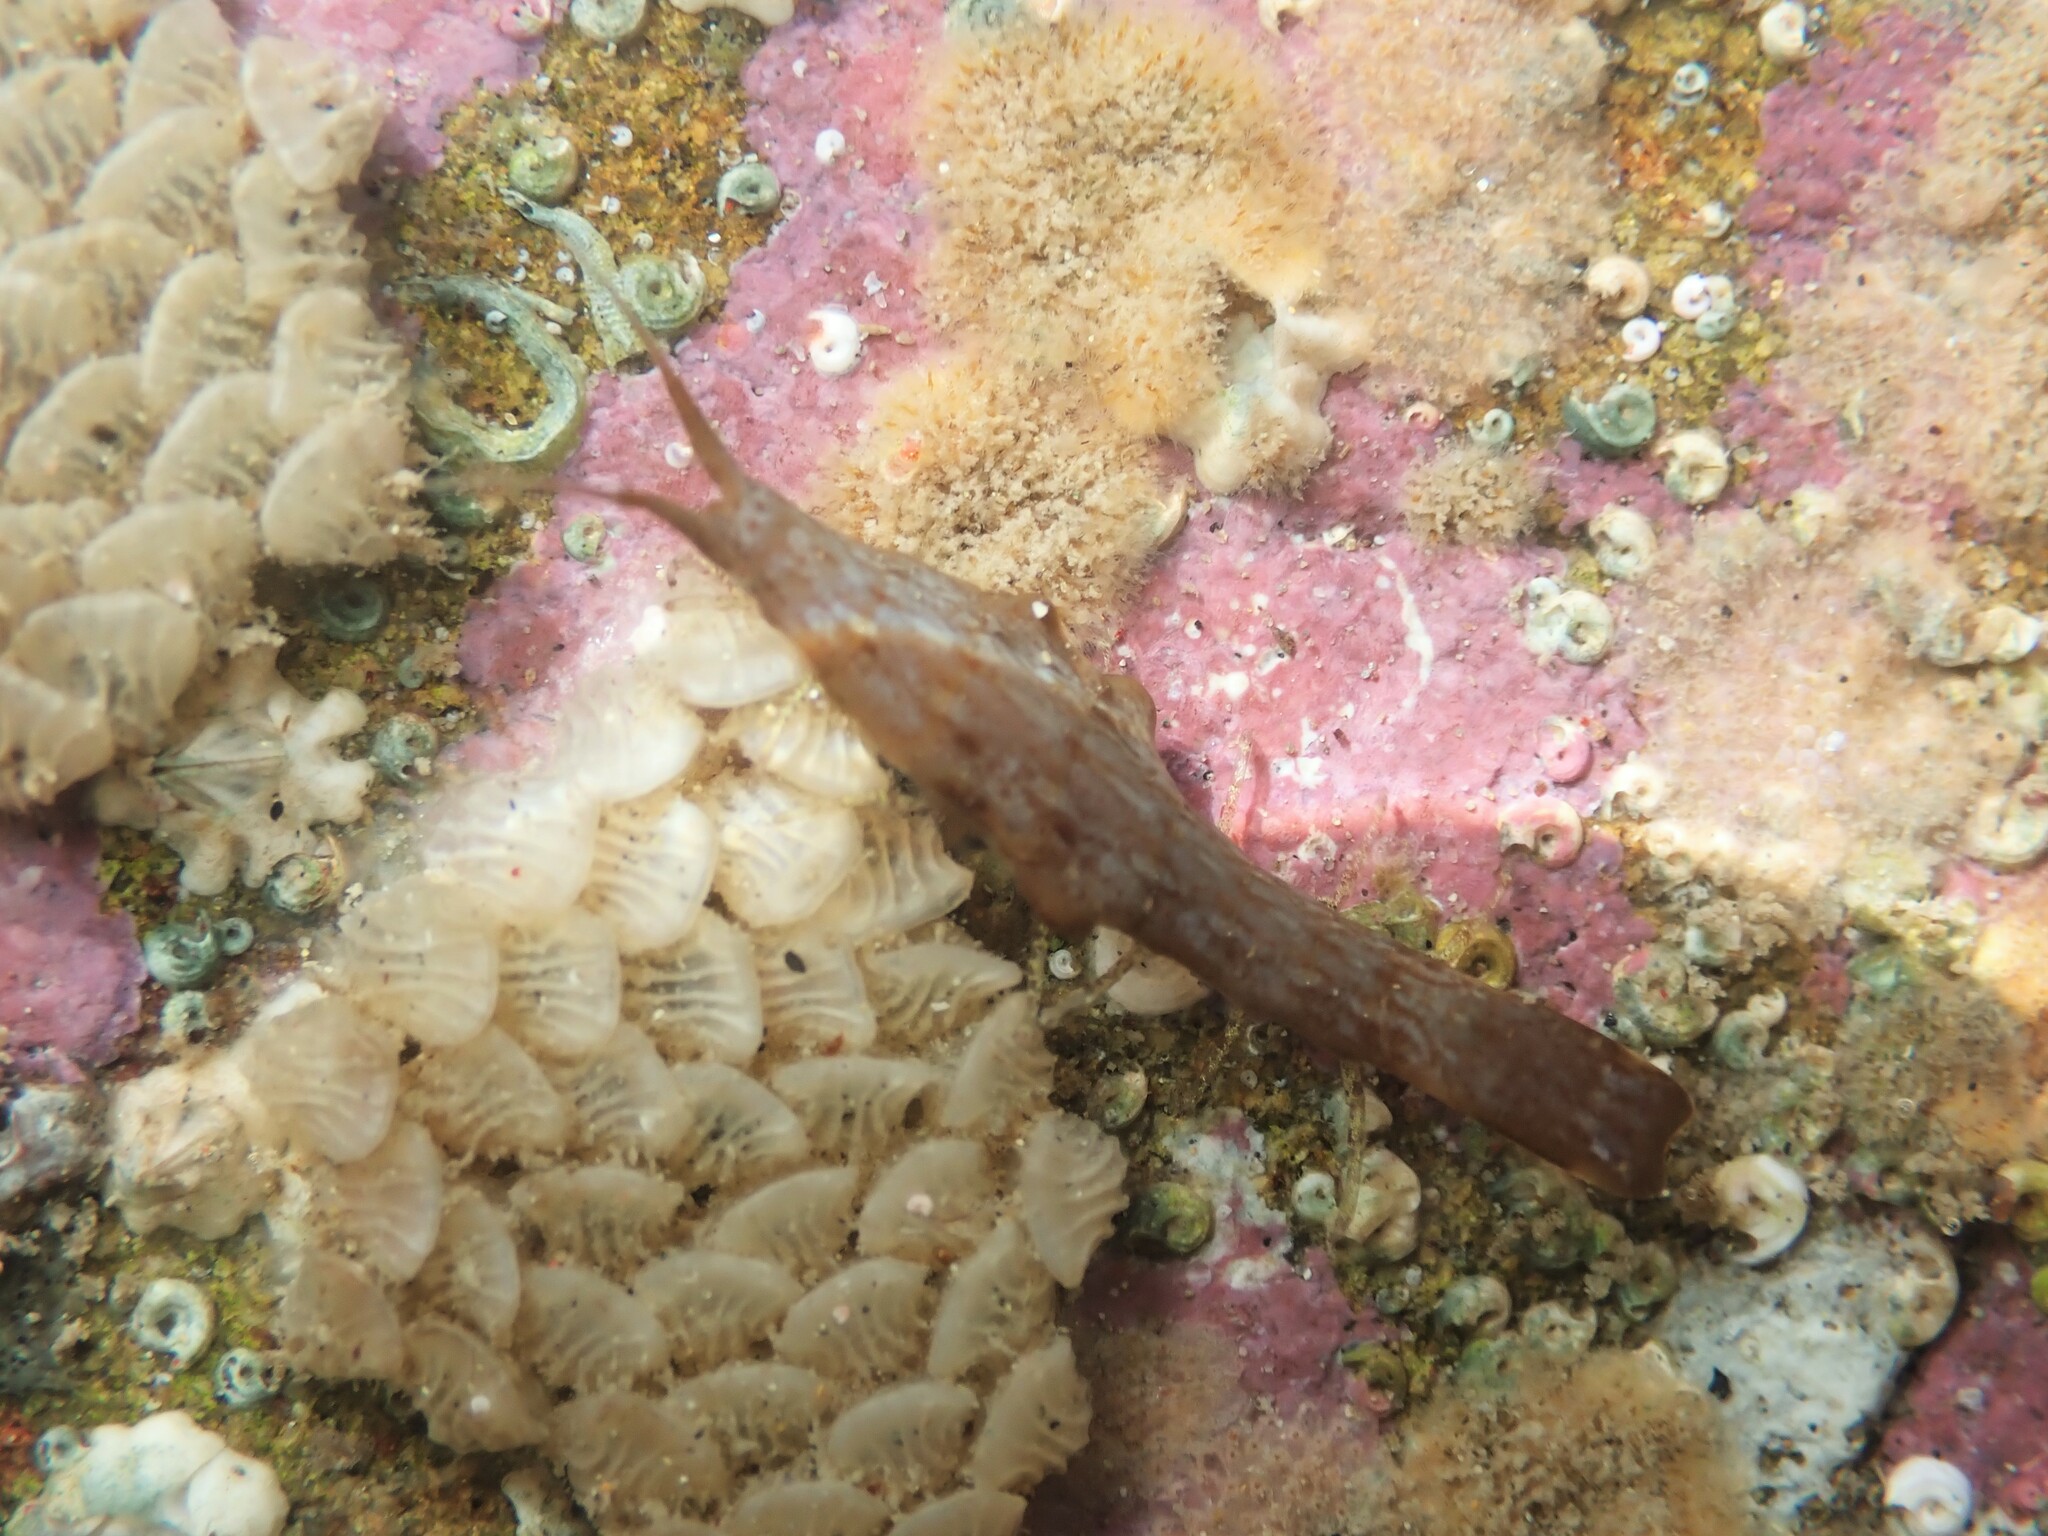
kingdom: Animalia
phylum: Arthropoda
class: Malacostraca
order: Isopoda
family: Idoteidae
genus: Batedotea
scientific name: Batedotea elongata
